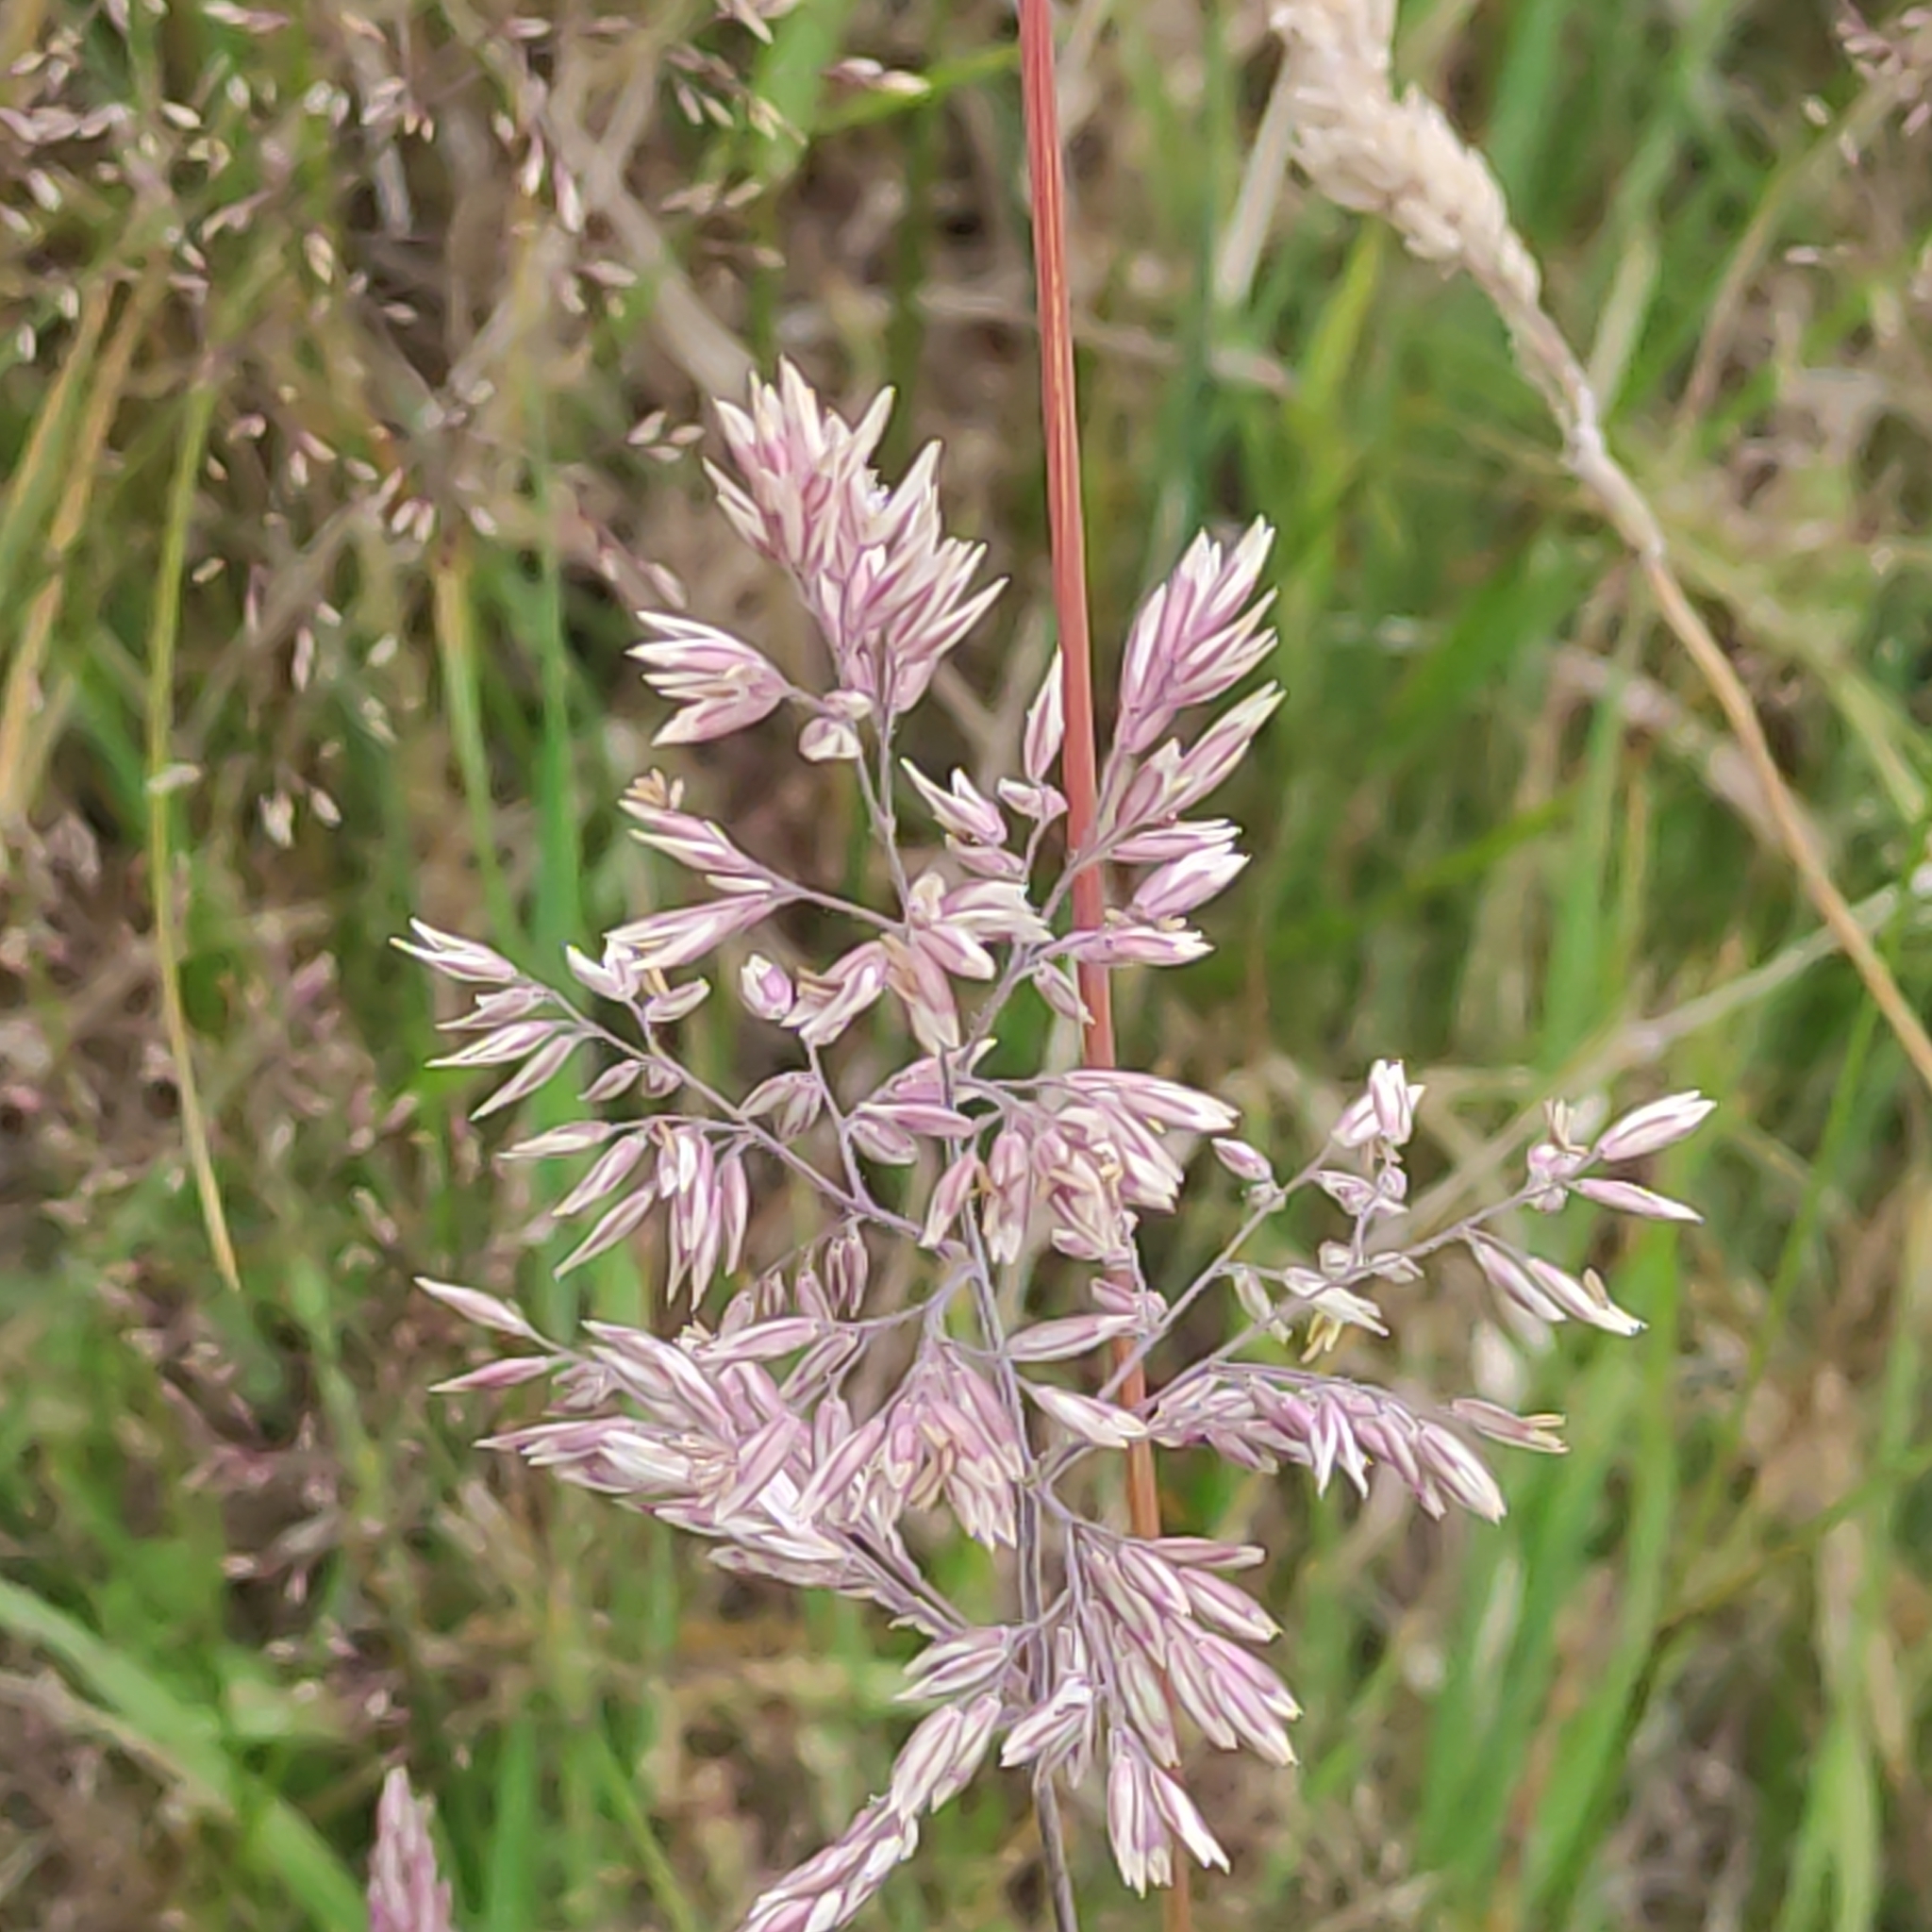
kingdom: Plantae
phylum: Tracheophyta
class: Liliopsida
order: Poales
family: Poaceae
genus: Holcus
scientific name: Holcus lanatus
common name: Yorkshire-fog
